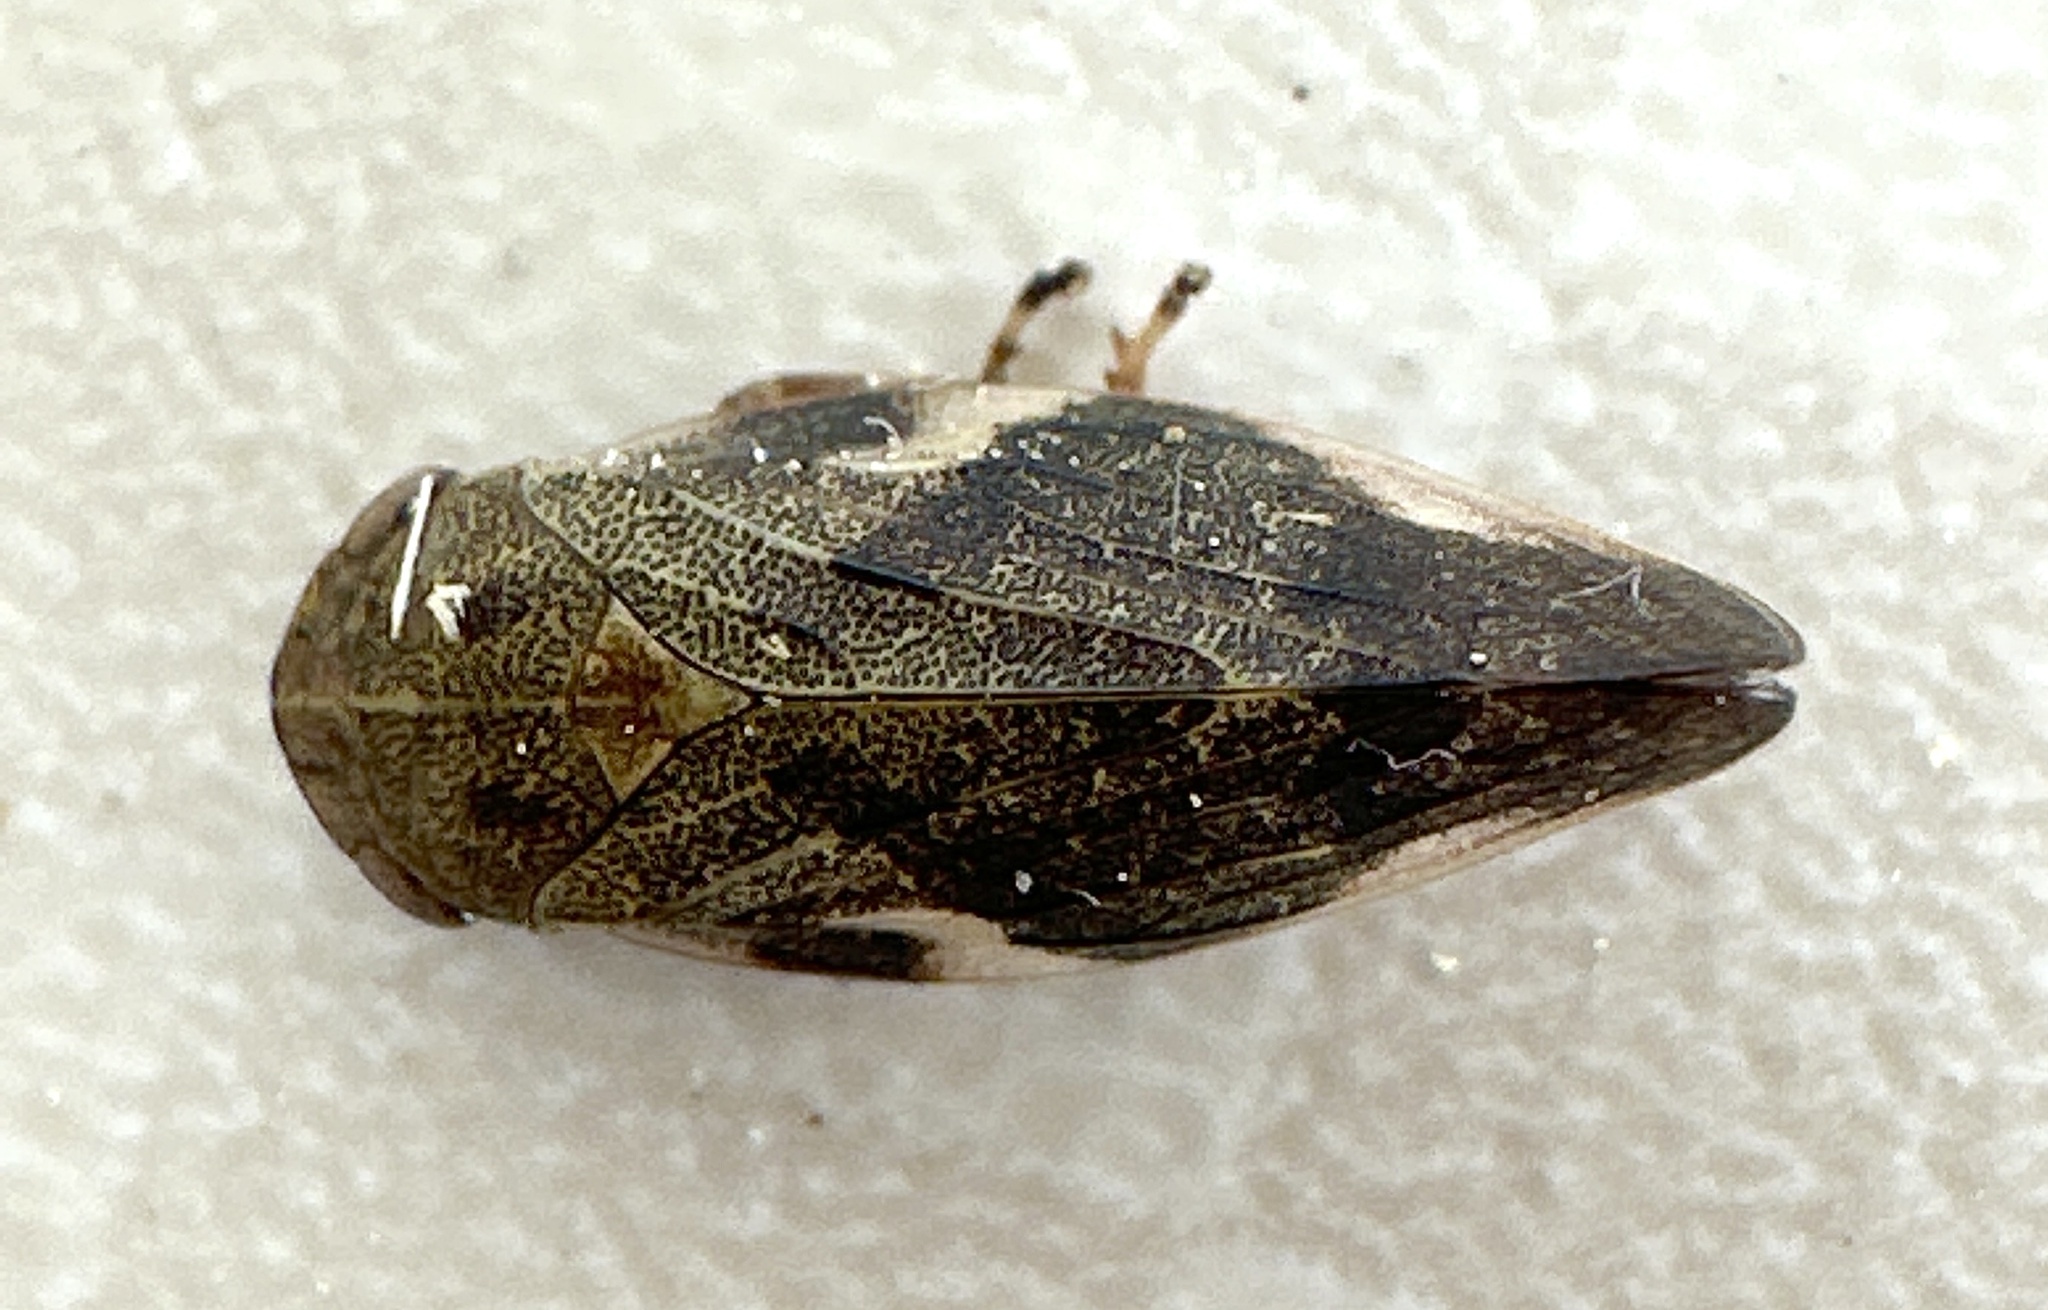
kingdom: Animalia
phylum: Arthropoda
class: Insecta
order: Hemiptera
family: Aphrophoridae
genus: Aphrophora
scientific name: Aphrophora alni
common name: European alder spittlebug
